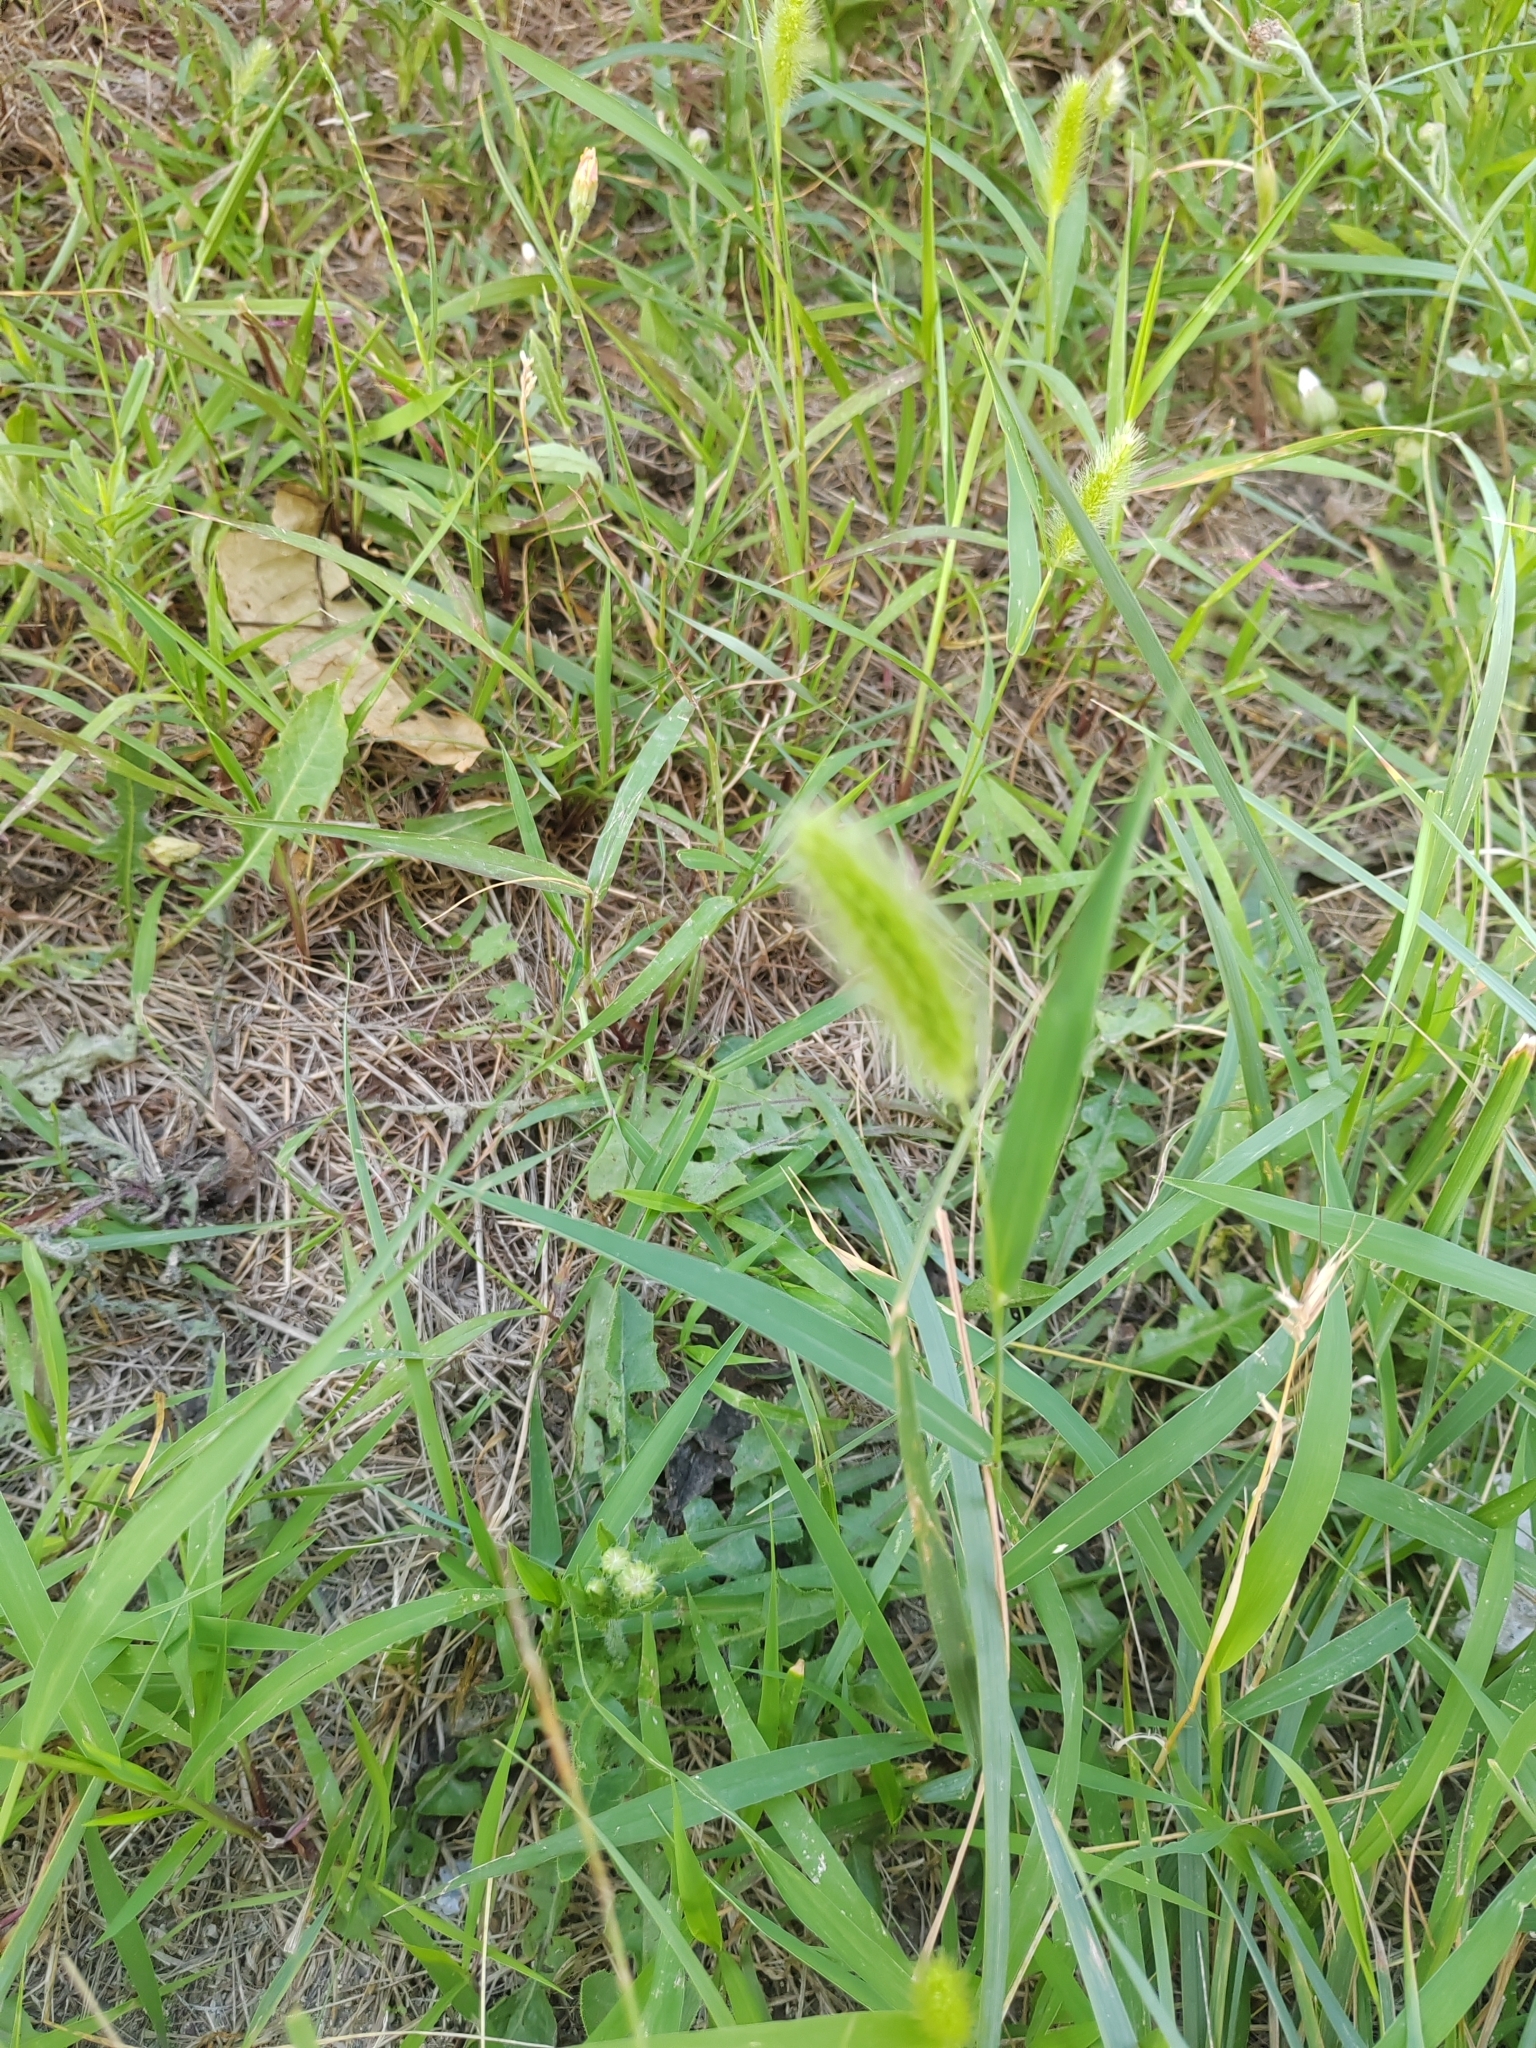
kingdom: Plantae
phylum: Tracheophyta
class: Liliopsida
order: Poales
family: Poaceae
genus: Setaria
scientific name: Setaria viridis
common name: Green bristlegrass
